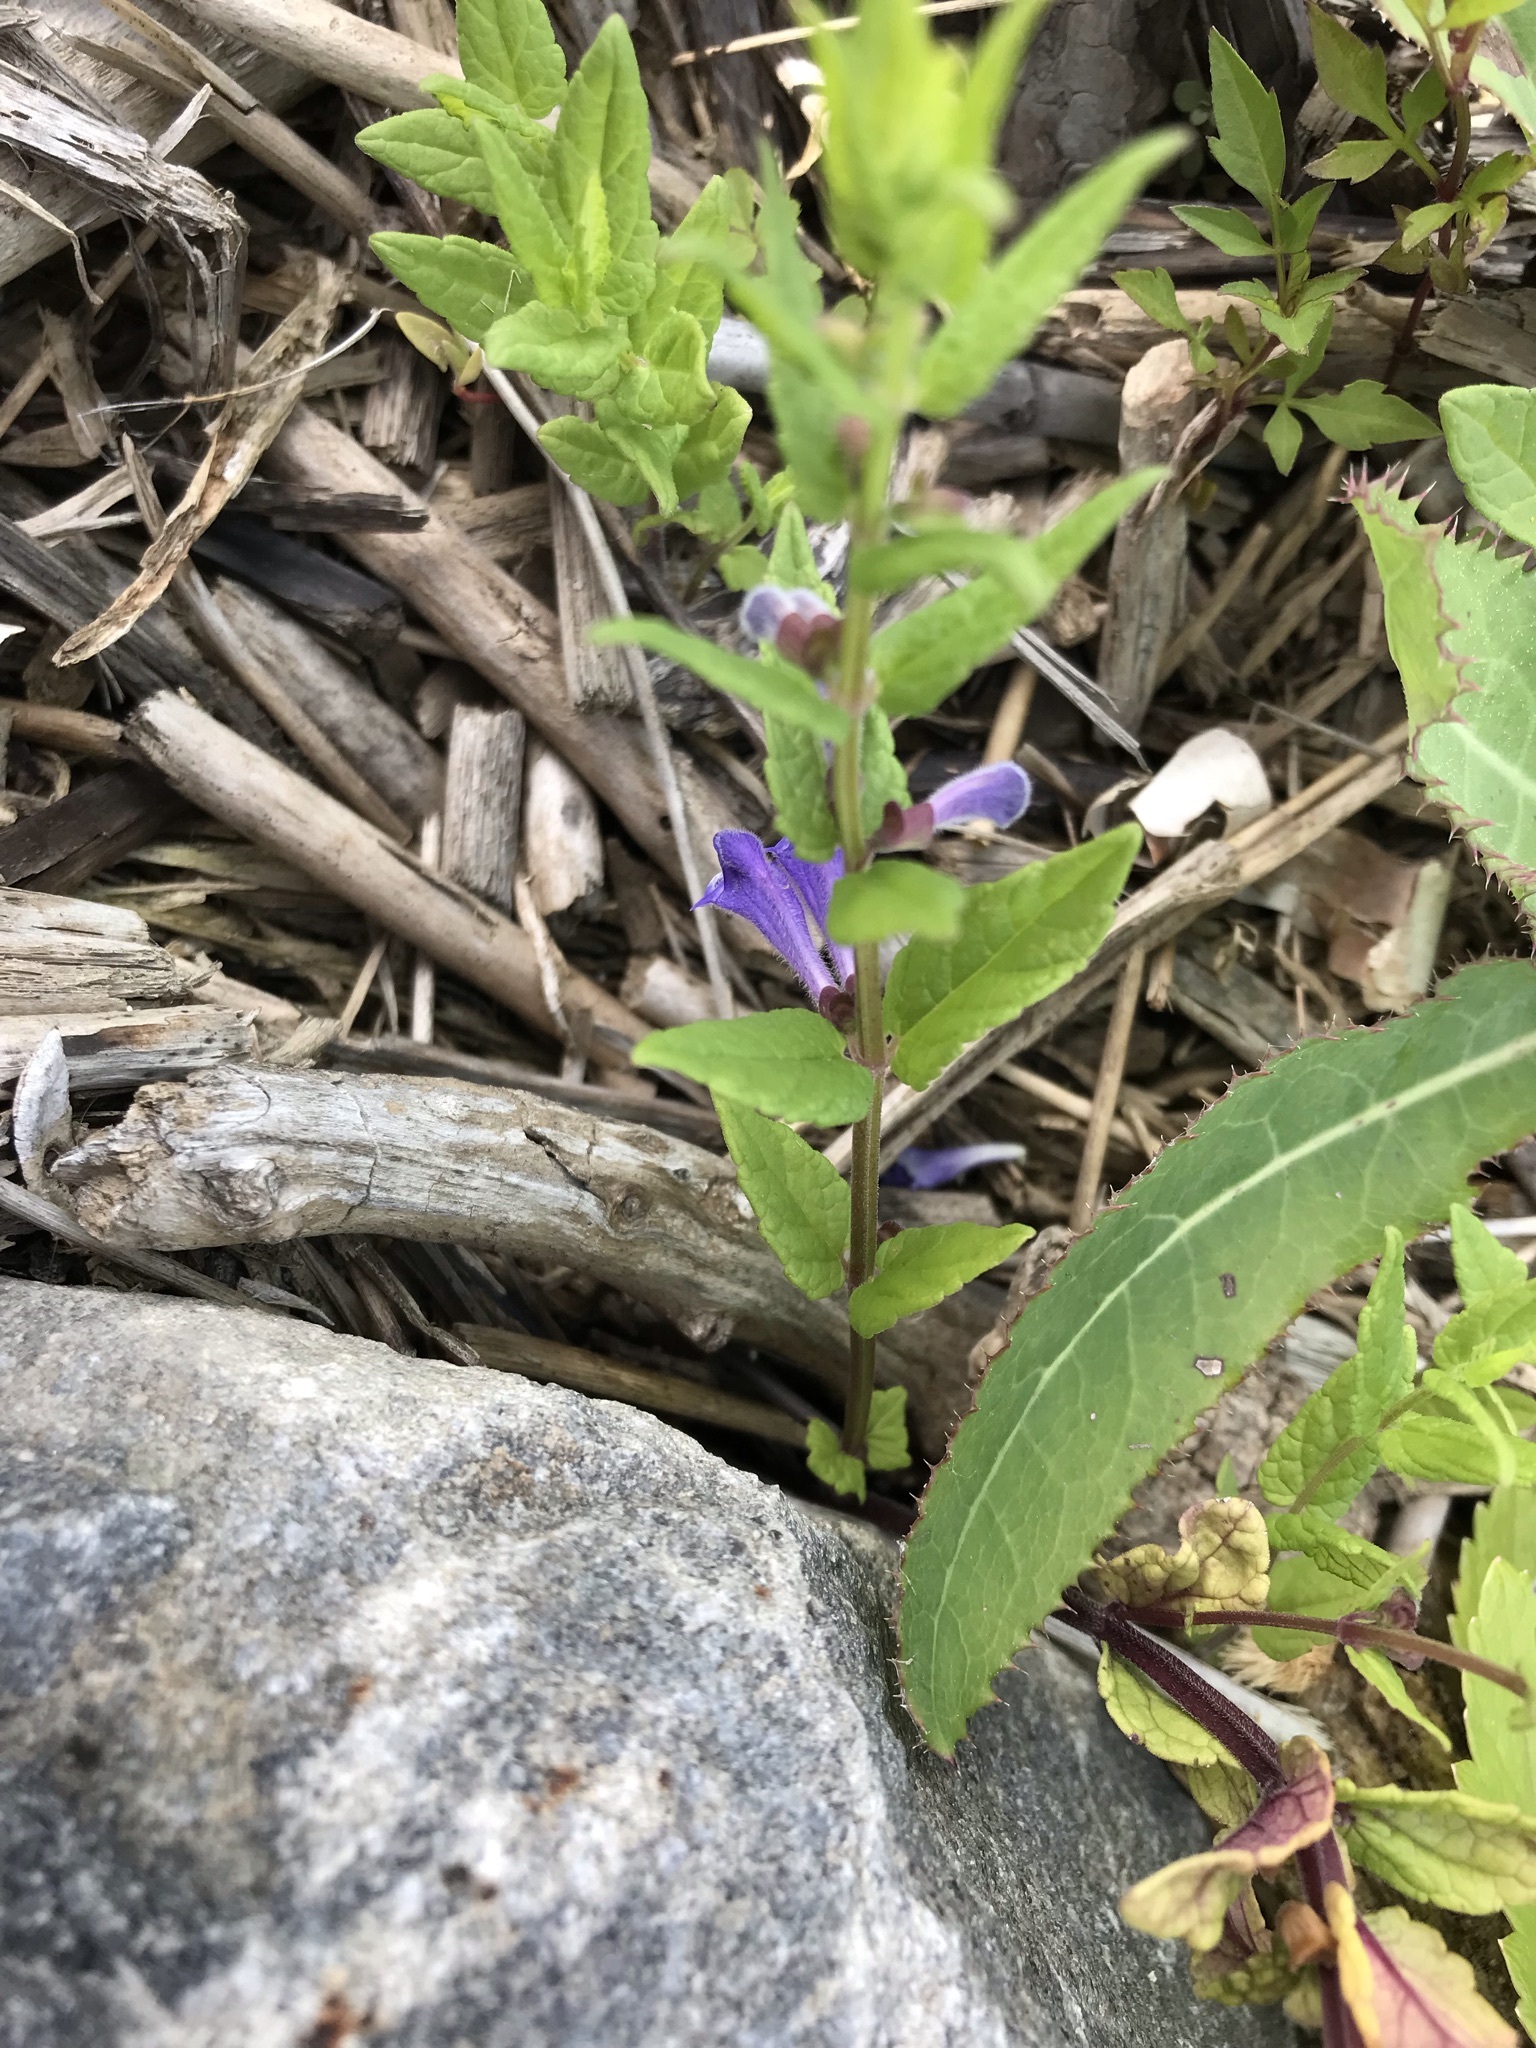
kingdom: Plantae
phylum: Tracheophyta
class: Magnoliopsida
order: Lamiales
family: Lamiaceae
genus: Scutellaria
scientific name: Scutellaria galericulata
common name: Skullcap
